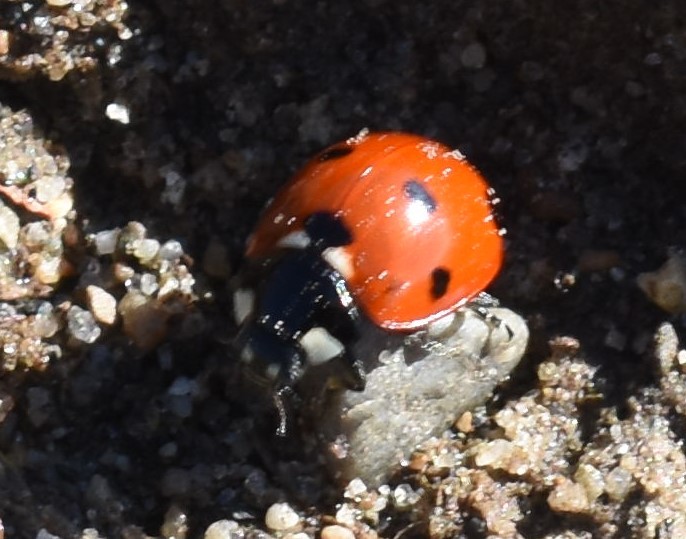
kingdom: Animalia
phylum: Arthropoda
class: Insecta
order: Coleoptera
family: Coccinellidae
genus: Coccinella
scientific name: Coccinella septempunctata
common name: Sevenspotted lady beetle
